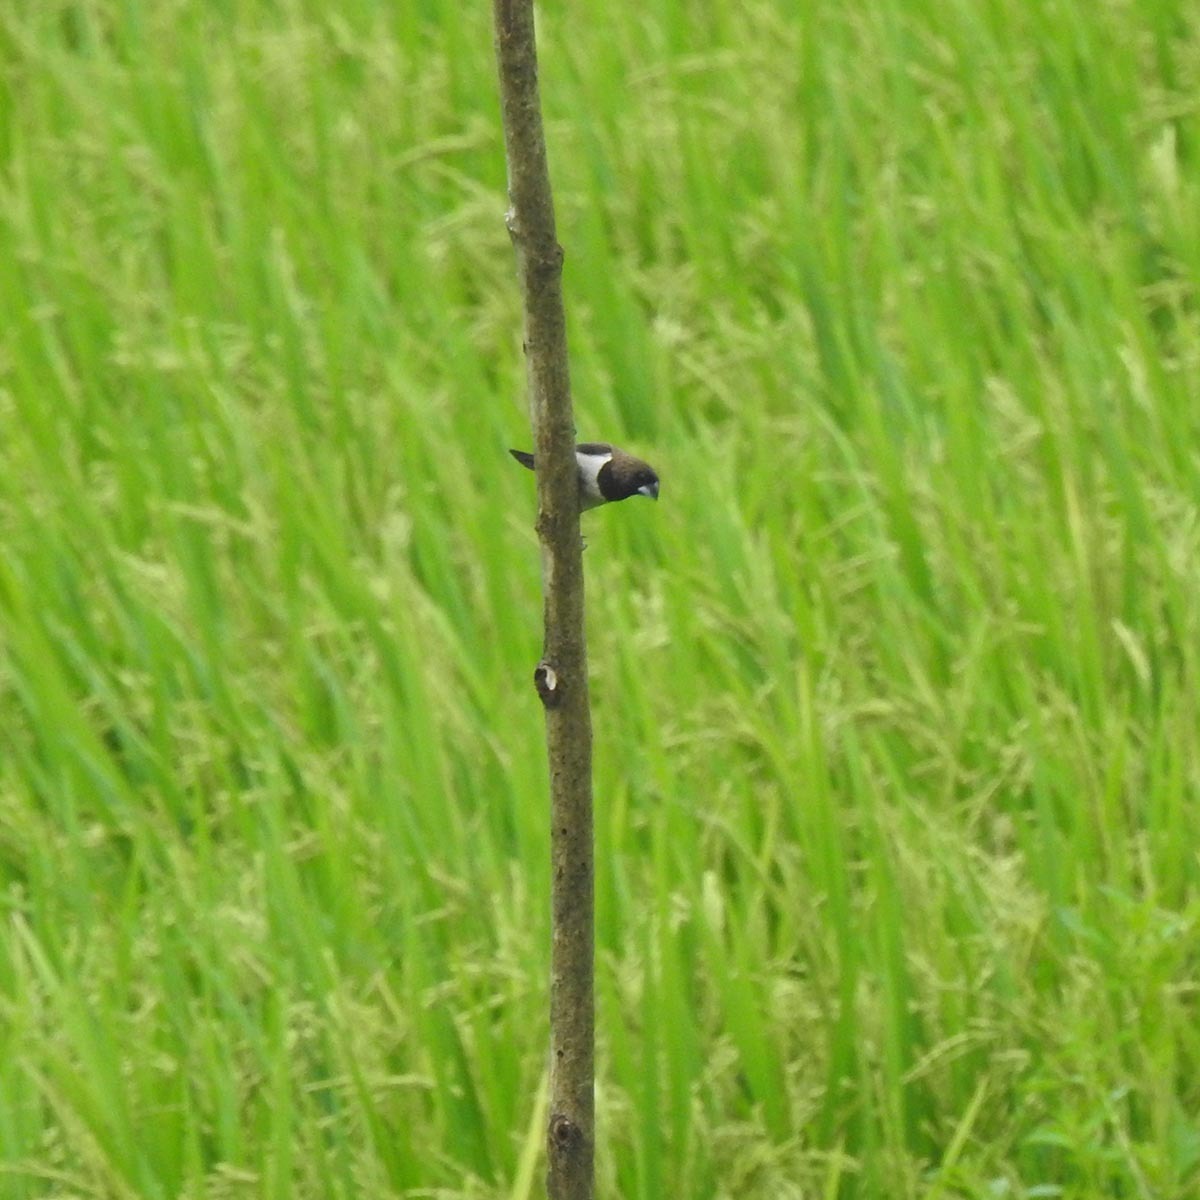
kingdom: Animalia
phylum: Chordata
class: Aves
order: Passeriformes
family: Estrildidae
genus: Lonchura
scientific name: Lonchura striata
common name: White-rumped munia
